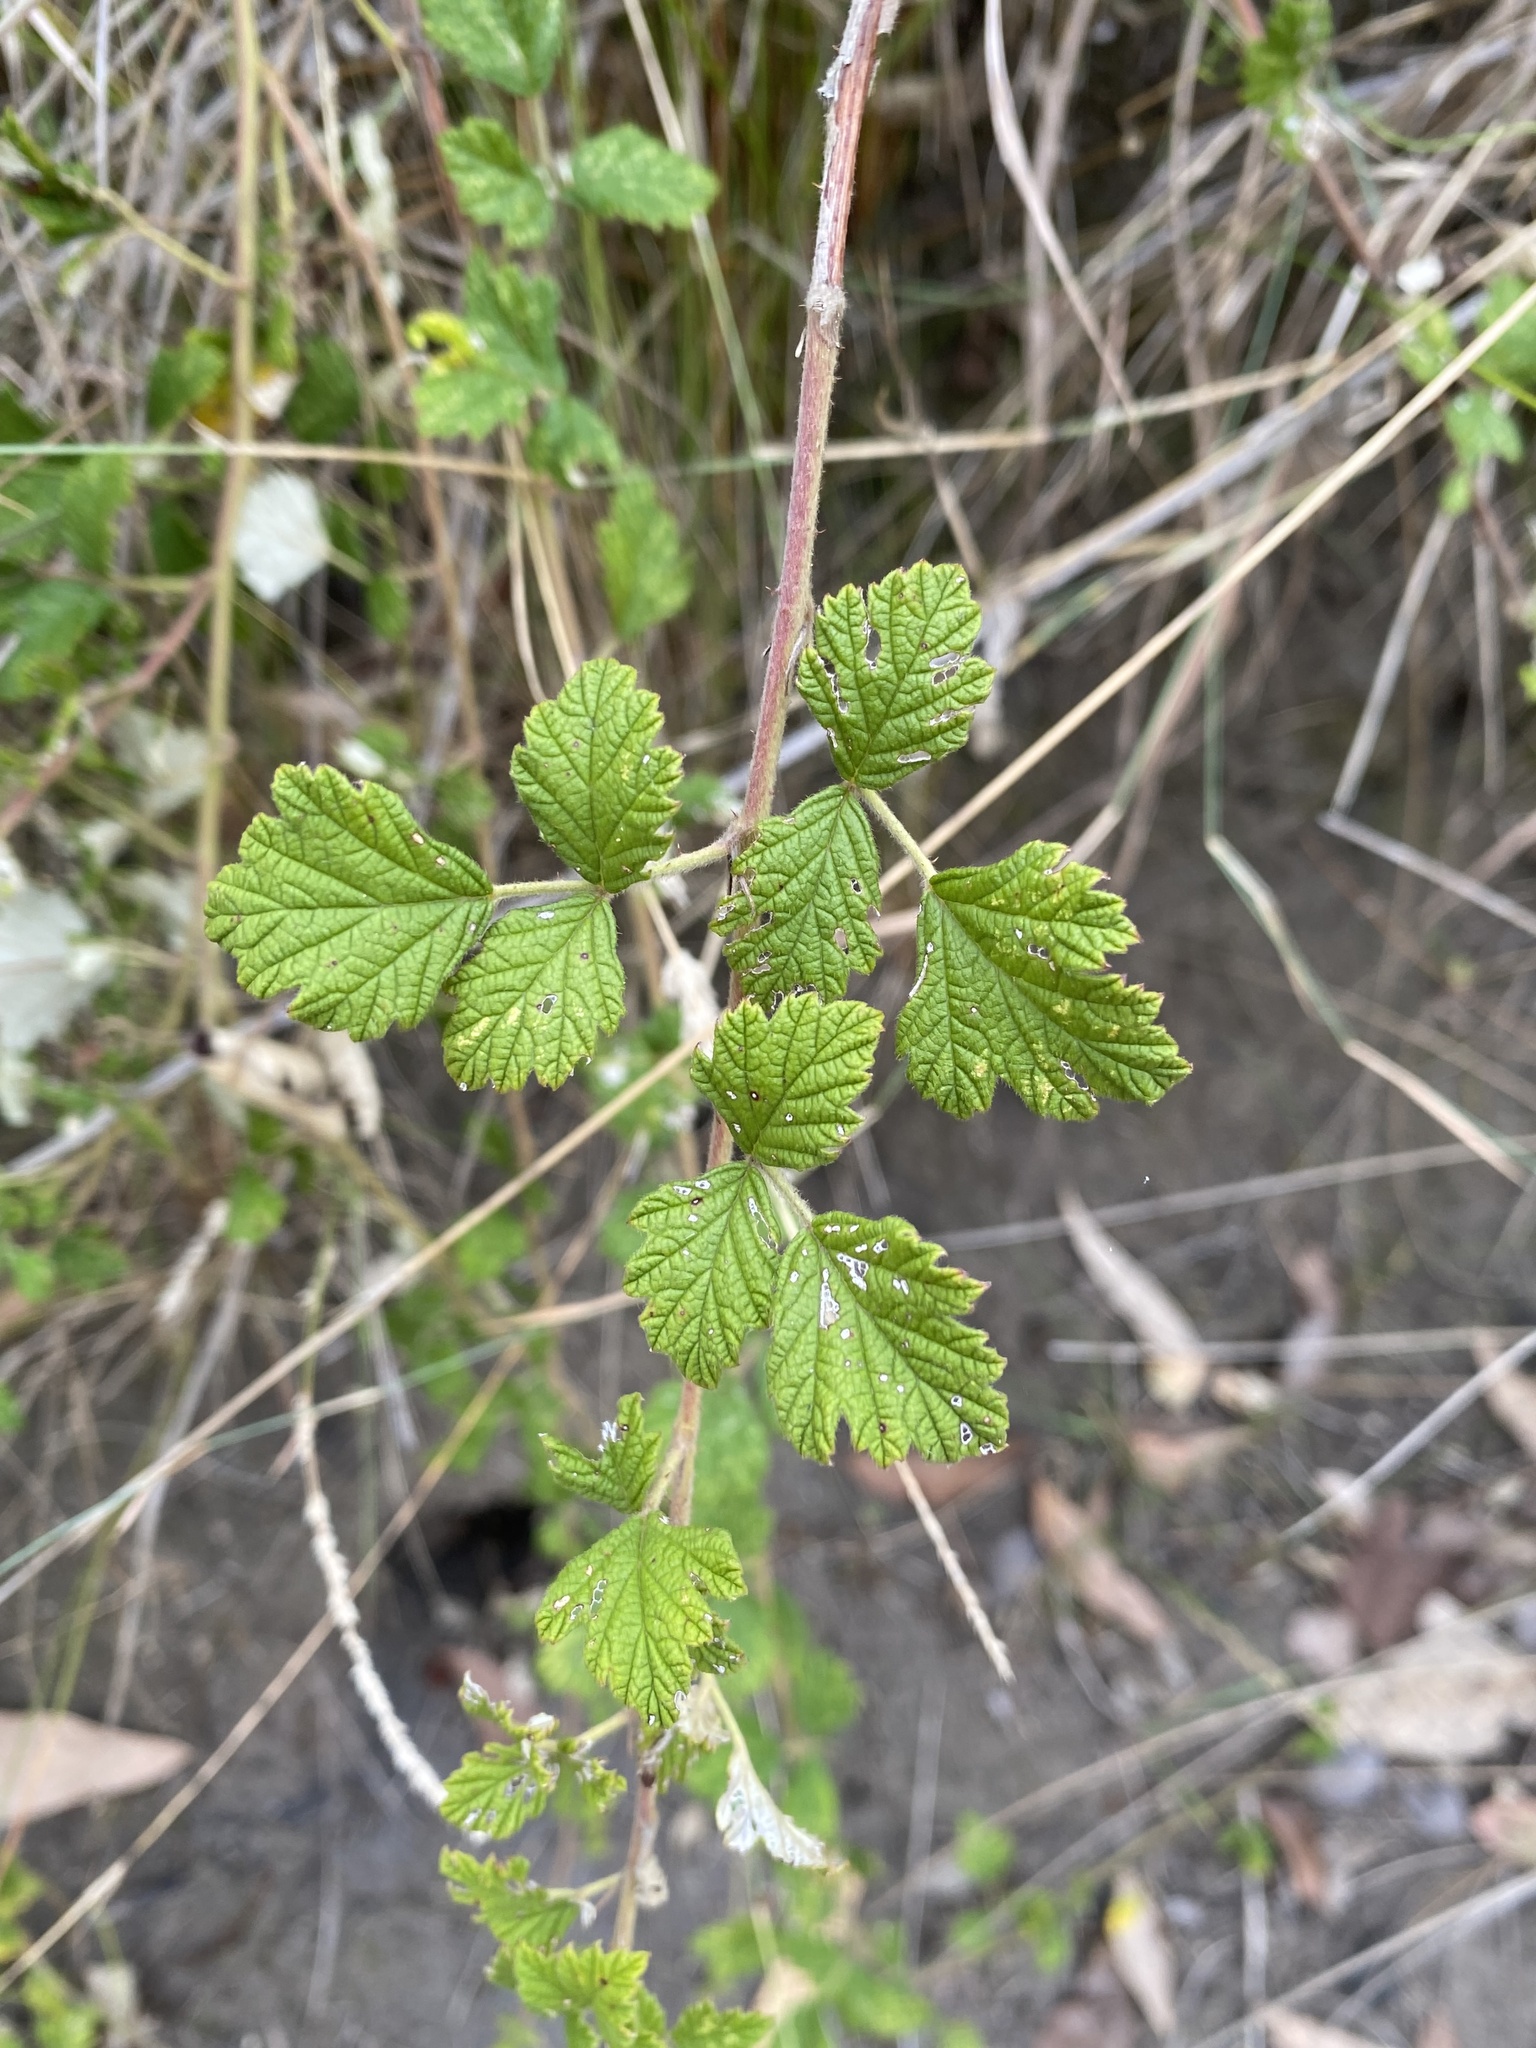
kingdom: Plantae
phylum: Tracheophyta
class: Magnoliopsida
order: Rosales
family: Rosaceae
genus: Rubus
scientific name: Rubus parvifolius
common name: Threeleaf blackberry
